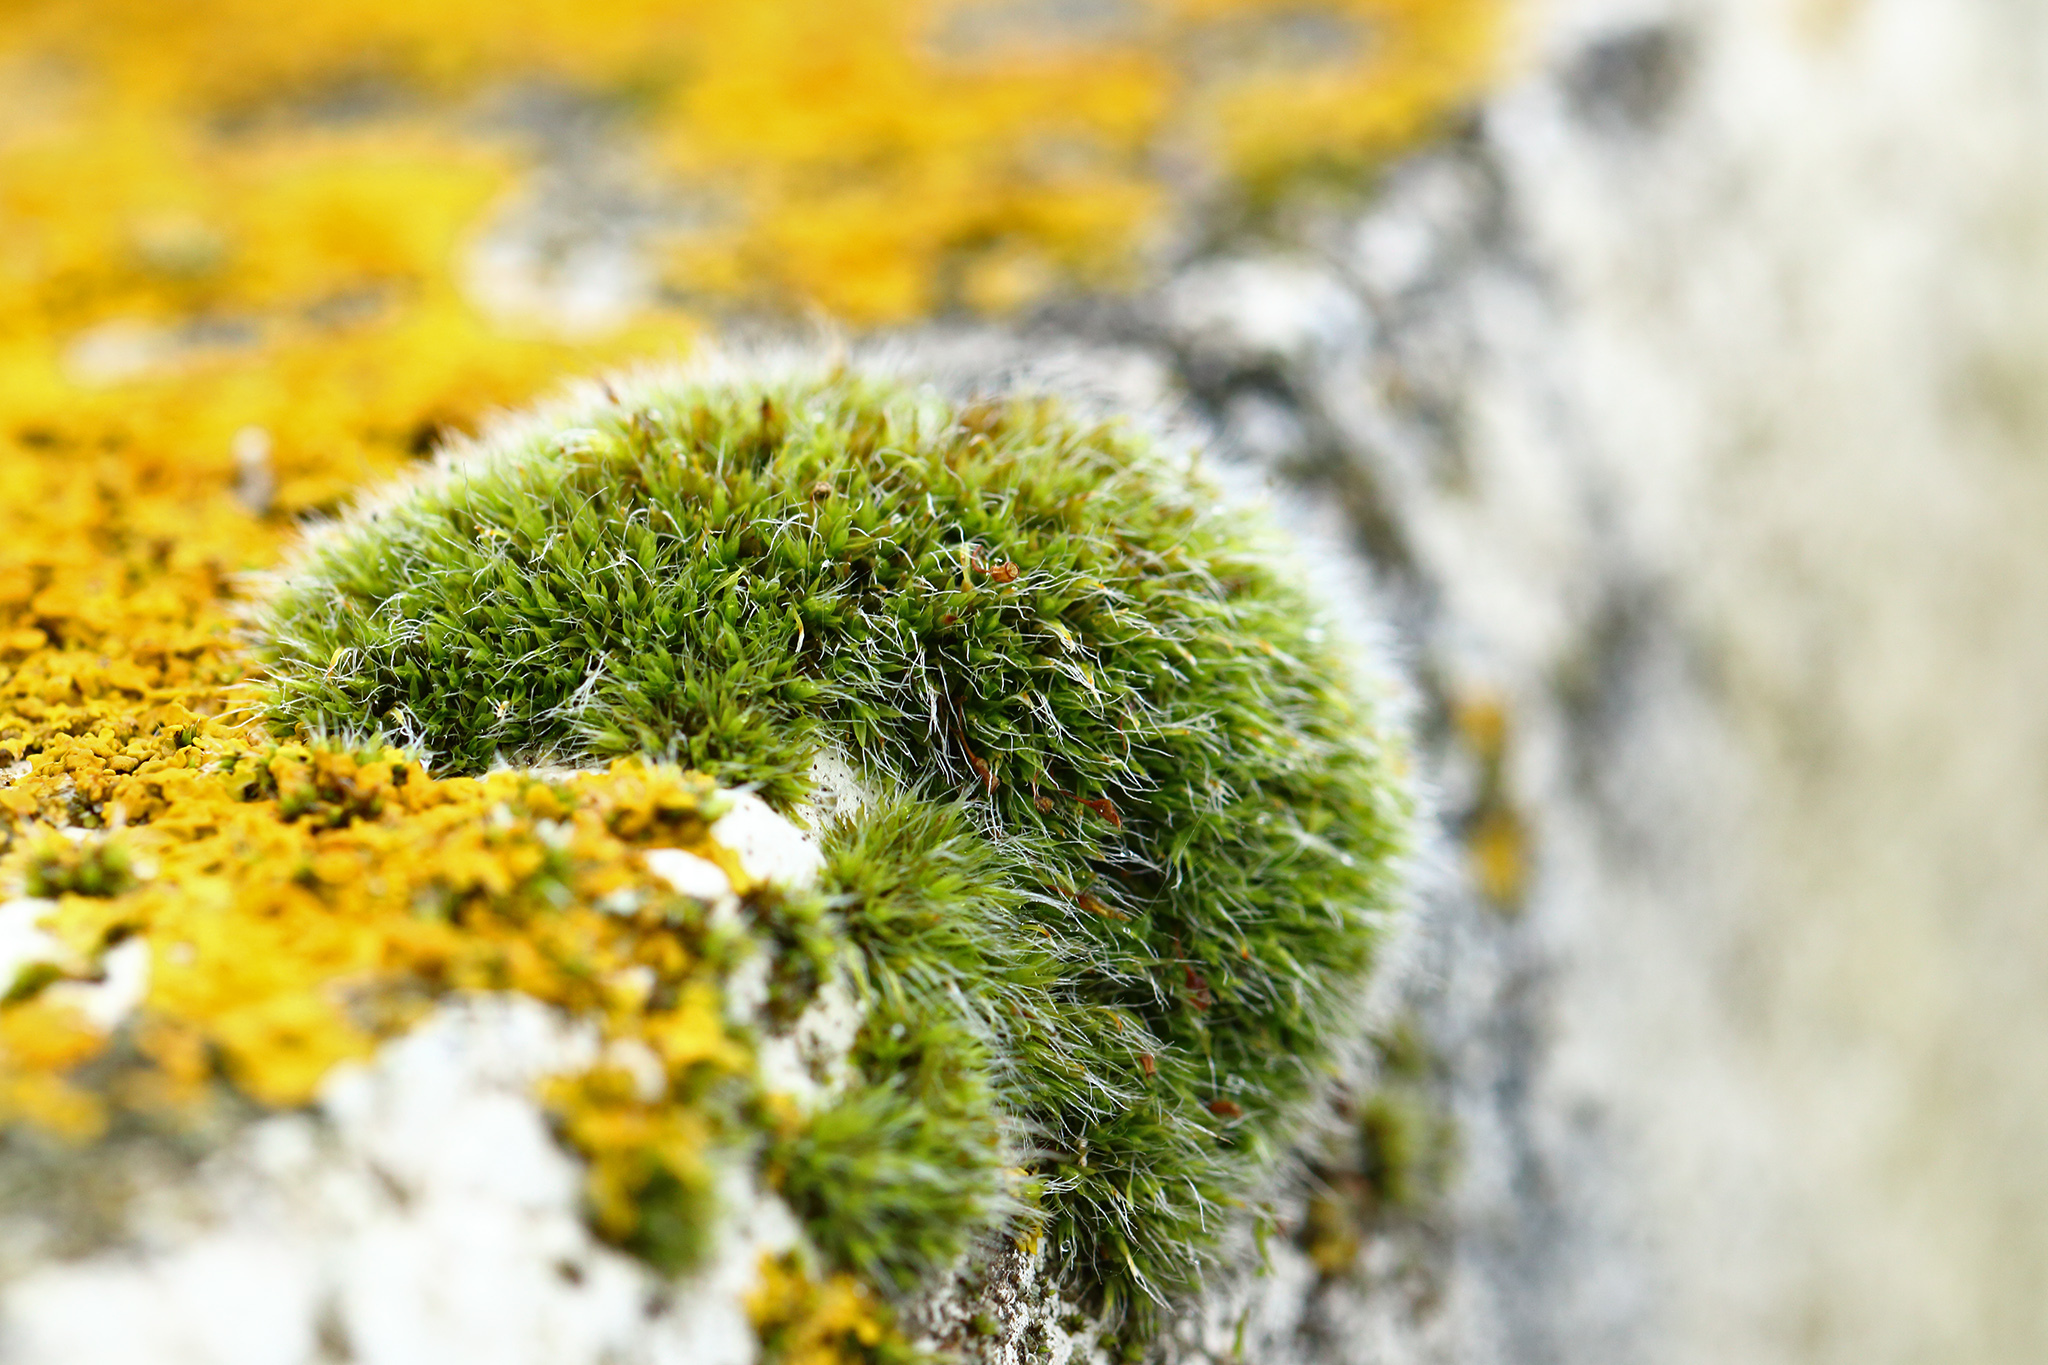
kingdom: Plantae
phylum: Bryophyta
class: Bryopsida
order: Grimmiales
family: Grimmiaceae
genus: Grimmia
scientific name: Grimmia pulvinata
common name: Grey-cushioned grimmia
